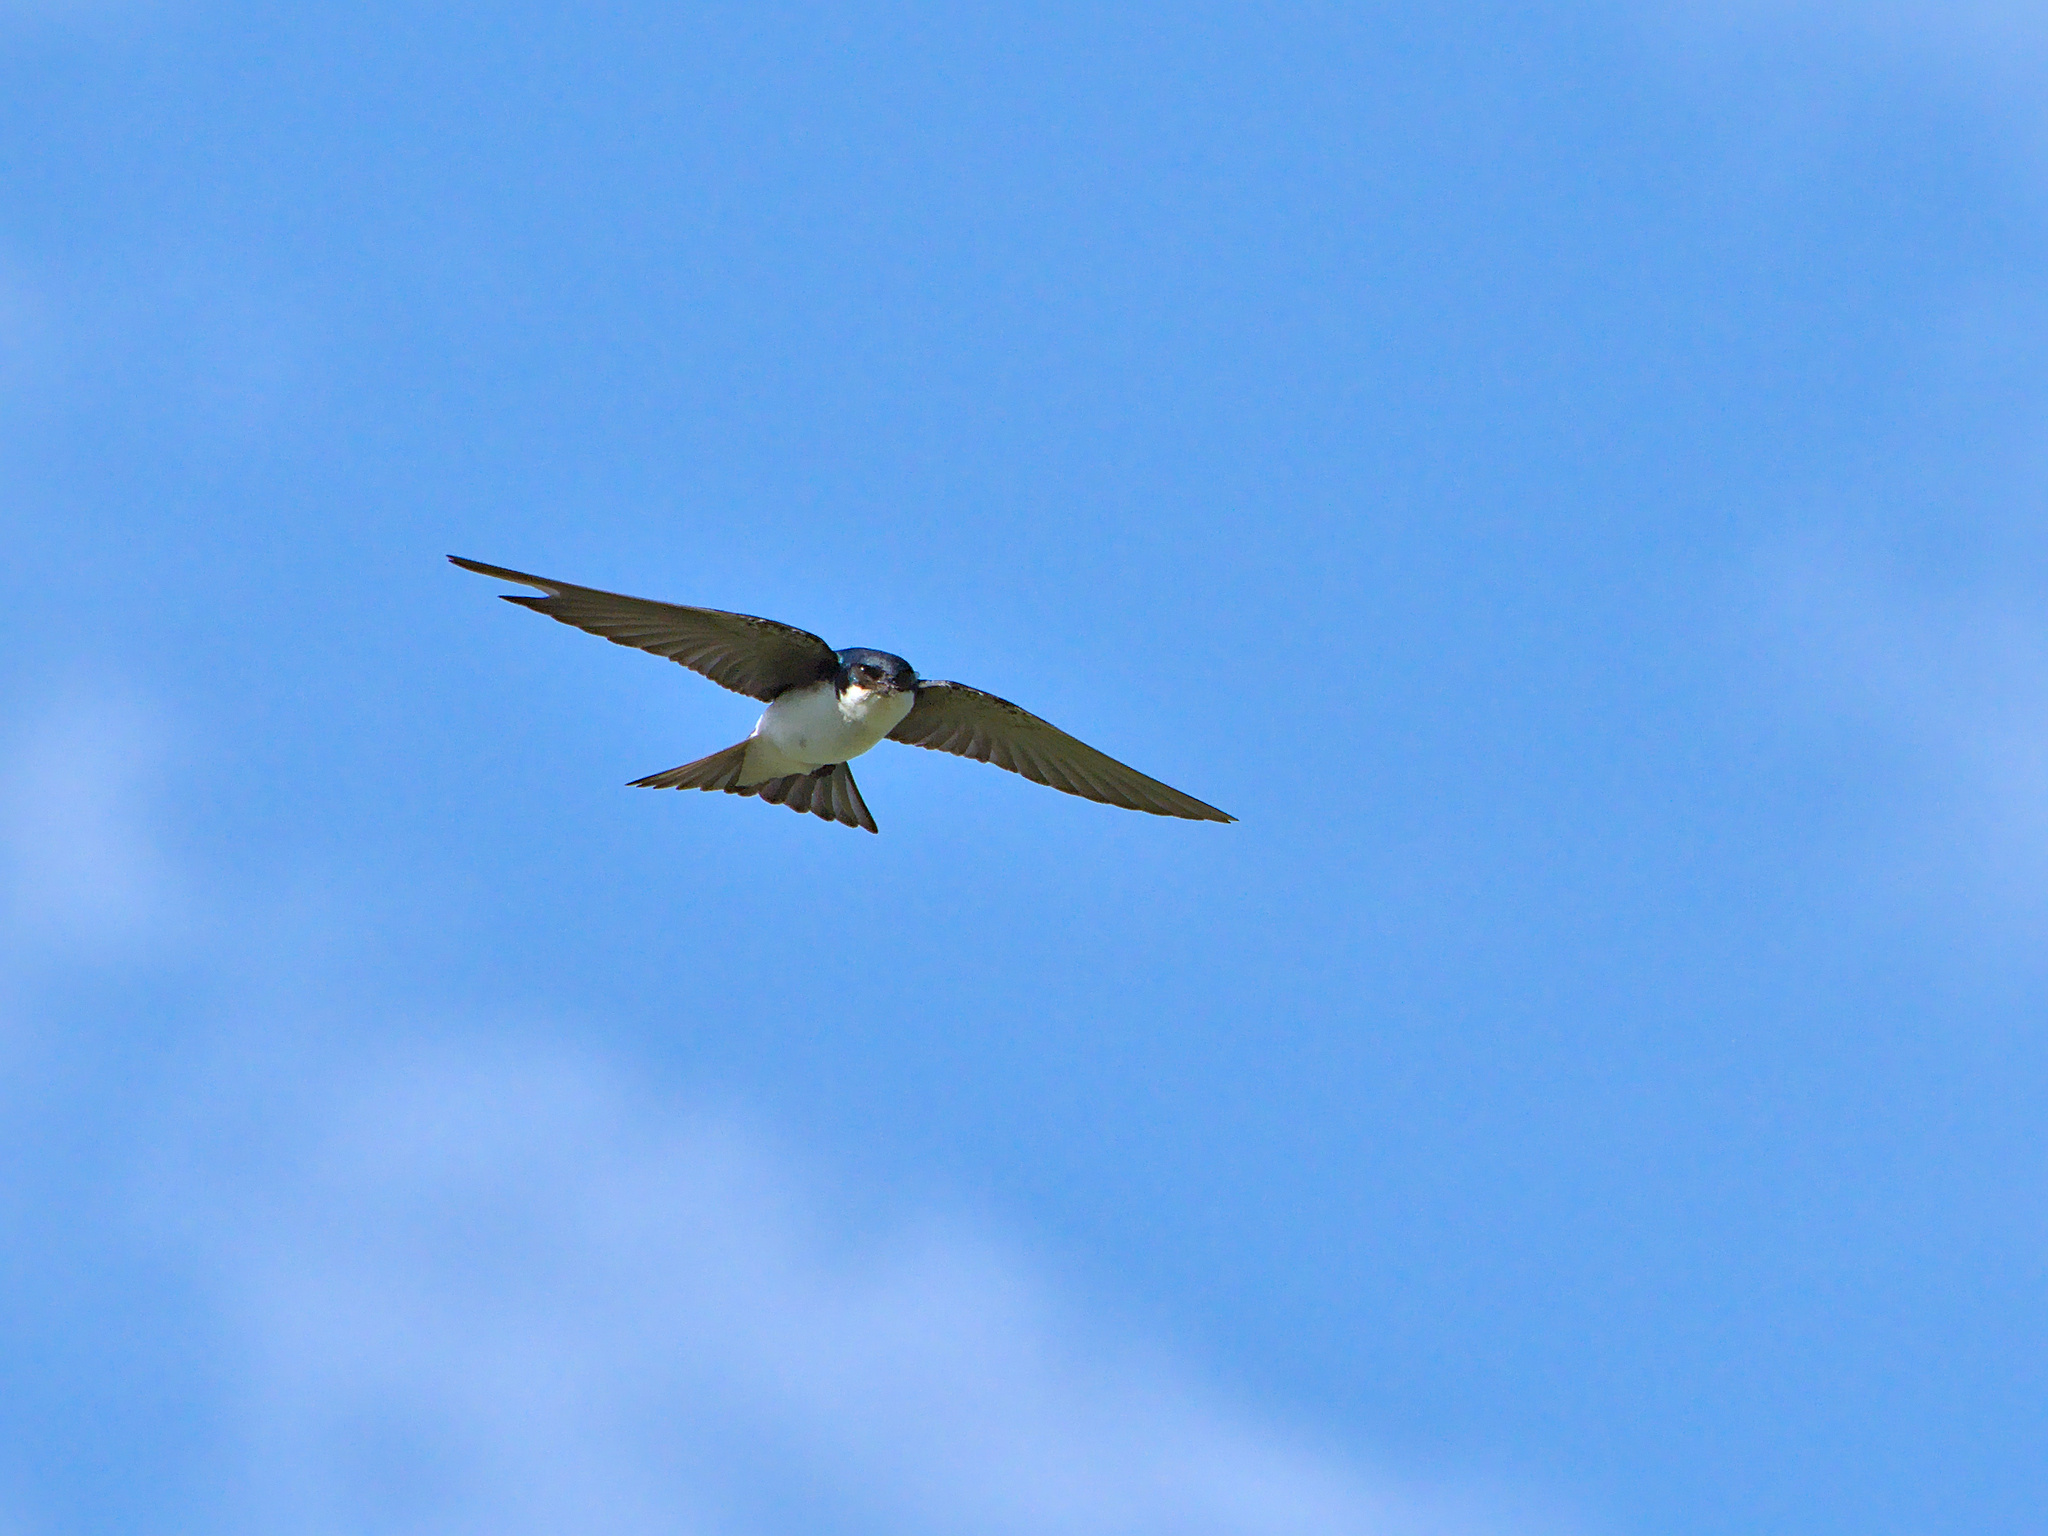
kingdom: Animalia
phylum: Chordata
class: Aves
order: Passeriformes
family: Hirundinidae
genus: Tachycineta
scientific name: Tachycineta bicolor
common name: Tree swallow
